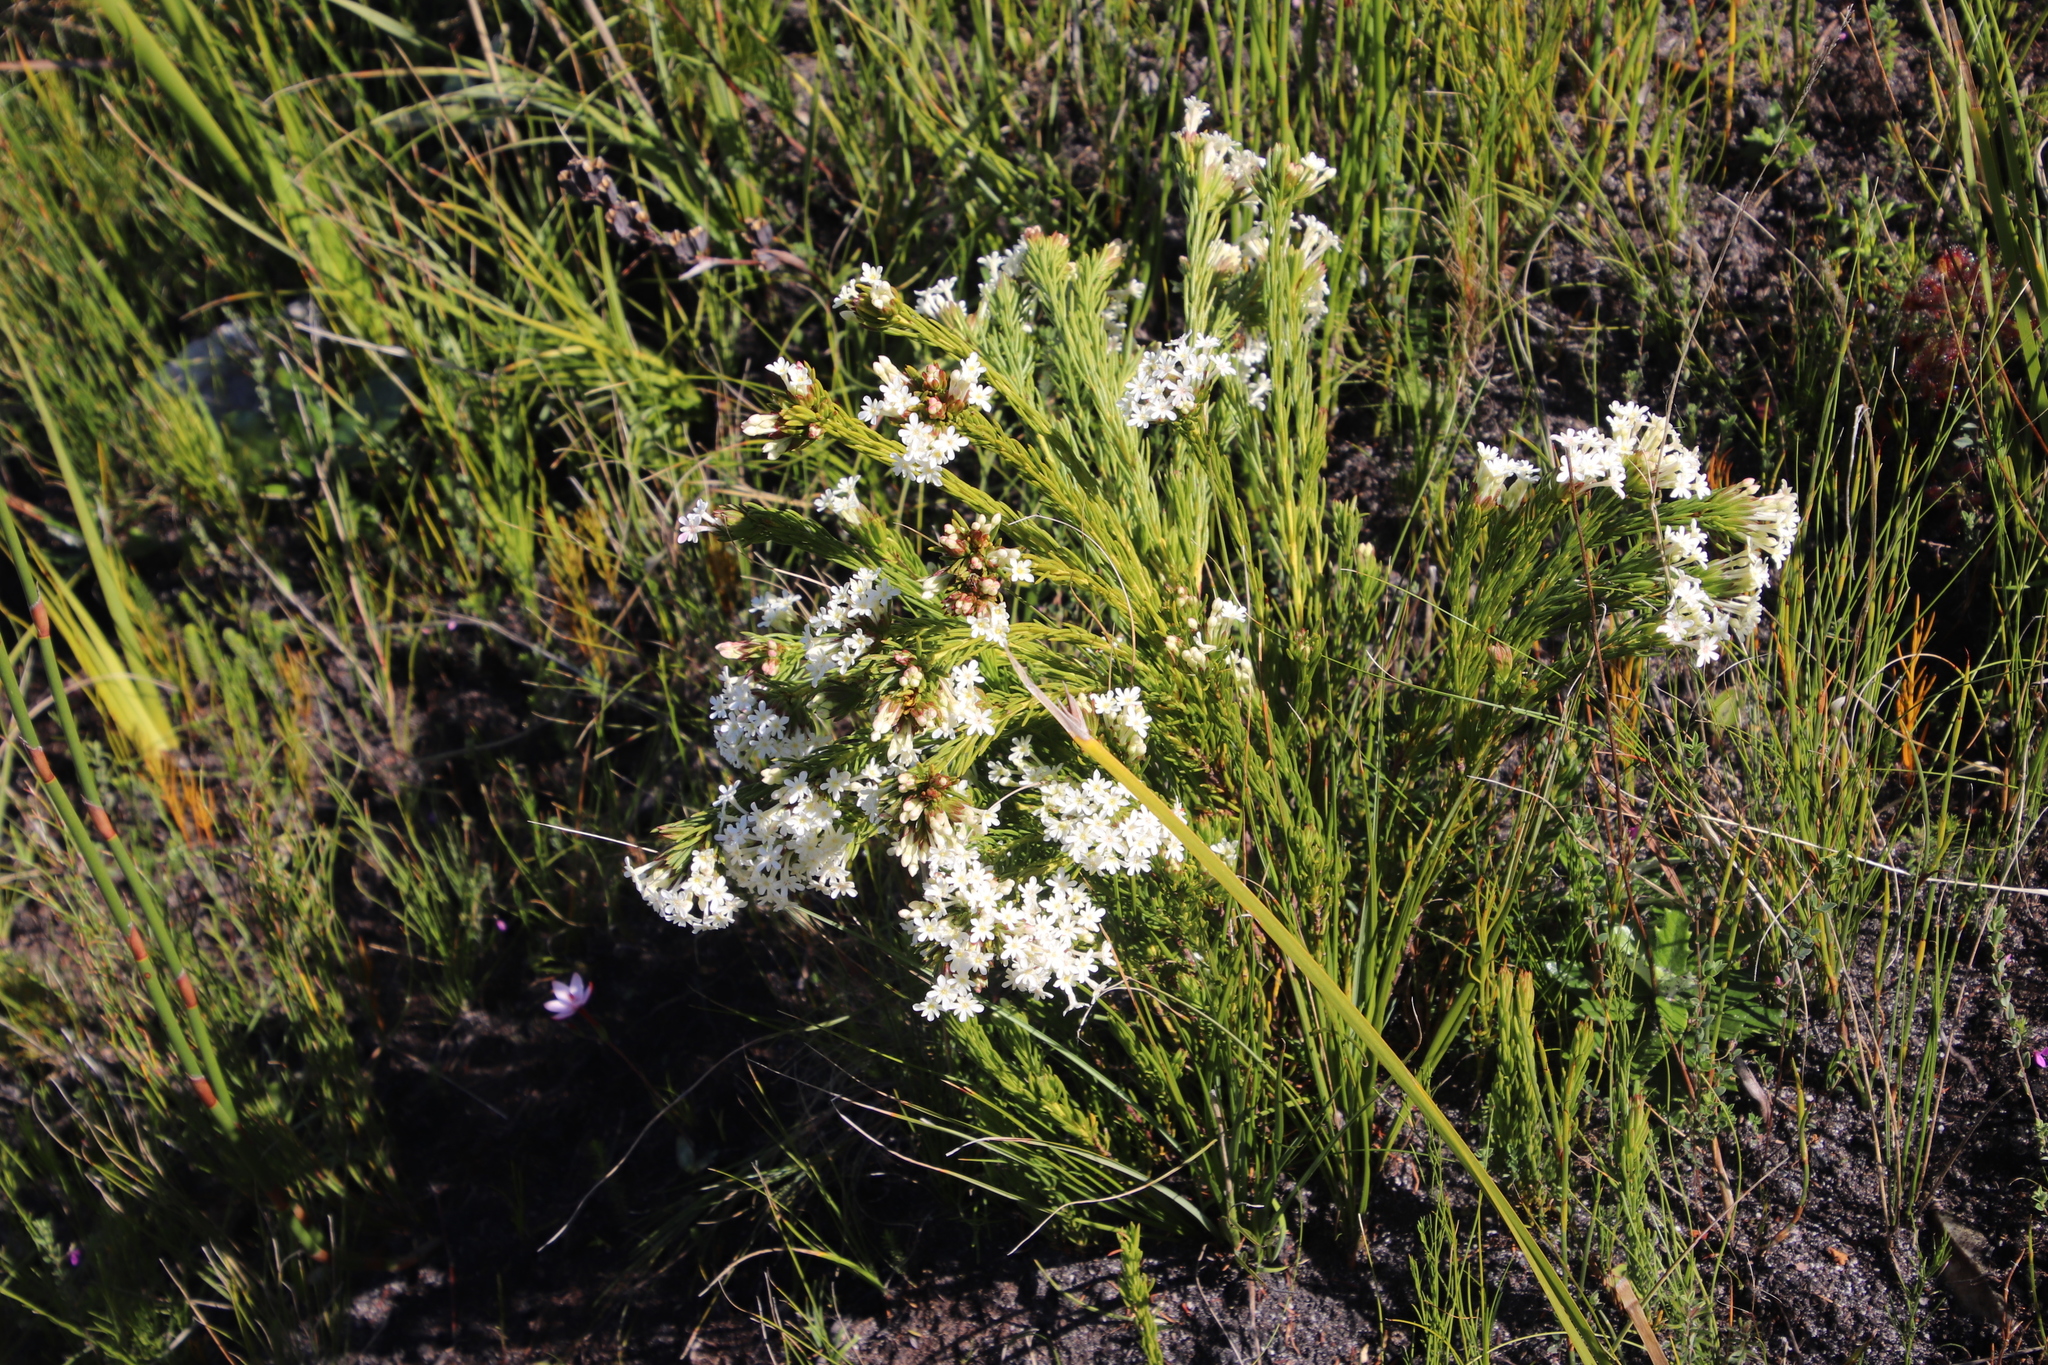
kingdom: Plantae
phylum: Tracheophyta
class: Magnoliopsida
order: Malvales
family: Thymelaeaceae
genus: Gnidia
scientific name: Gnidia pinifolia
